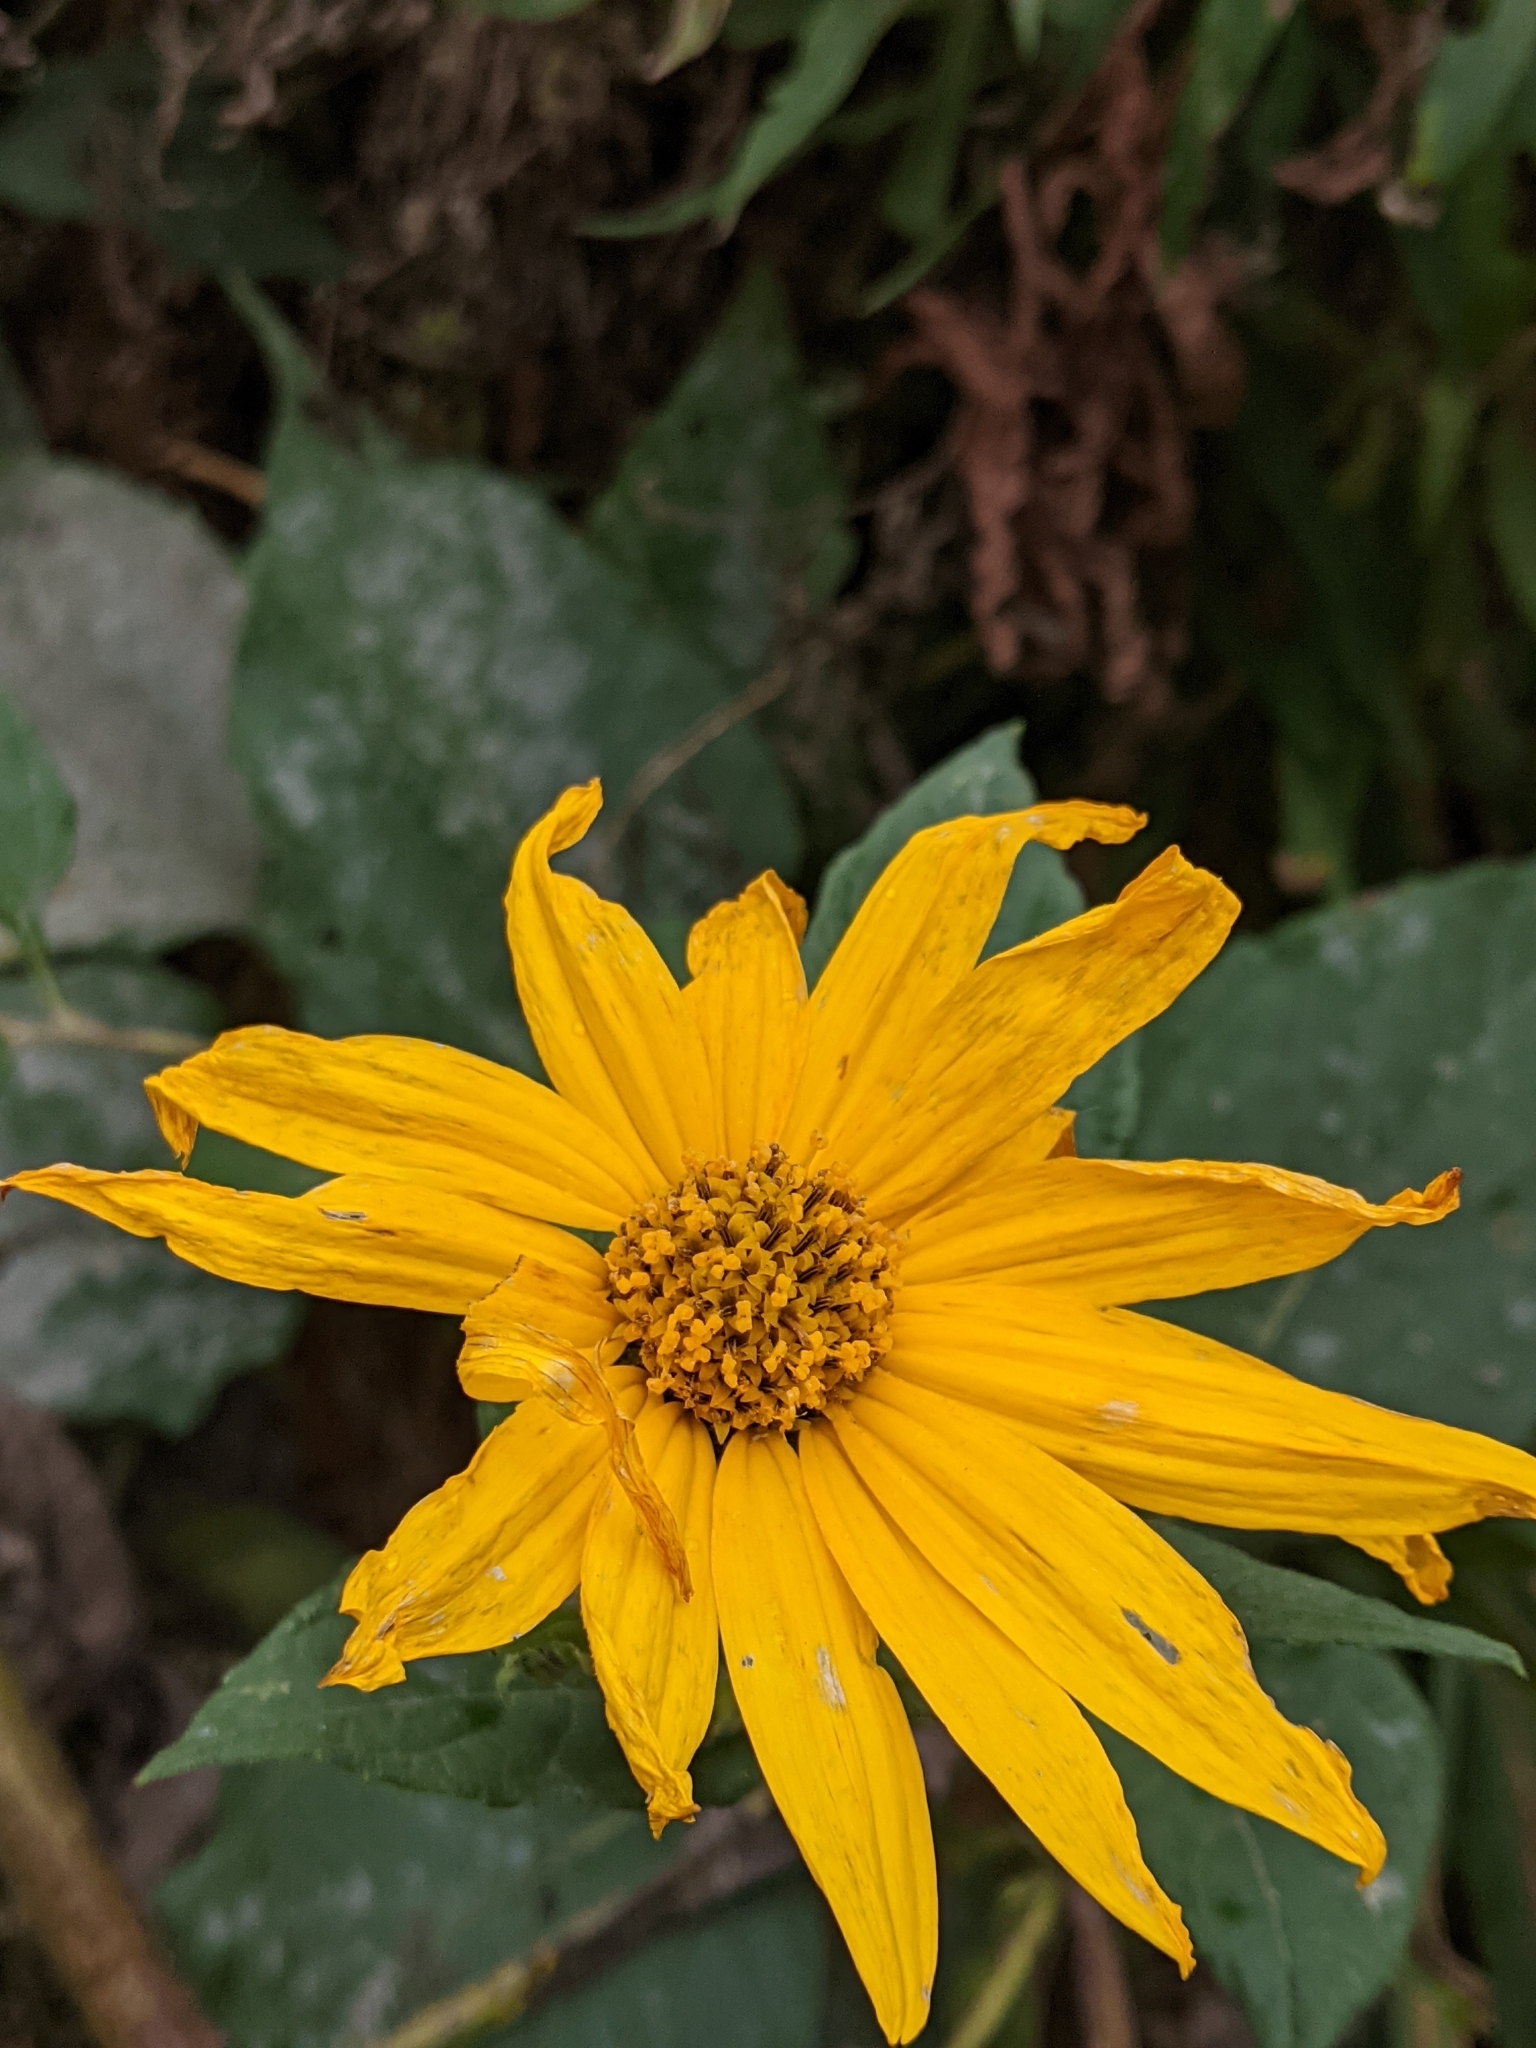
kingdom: Plantae
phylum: Tracheophyta
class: Magnoliopsida
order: Asterales
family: Asteraceae
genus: Helianthus
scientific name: Helianthus tuberosus
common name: Jerusalem artichoke
